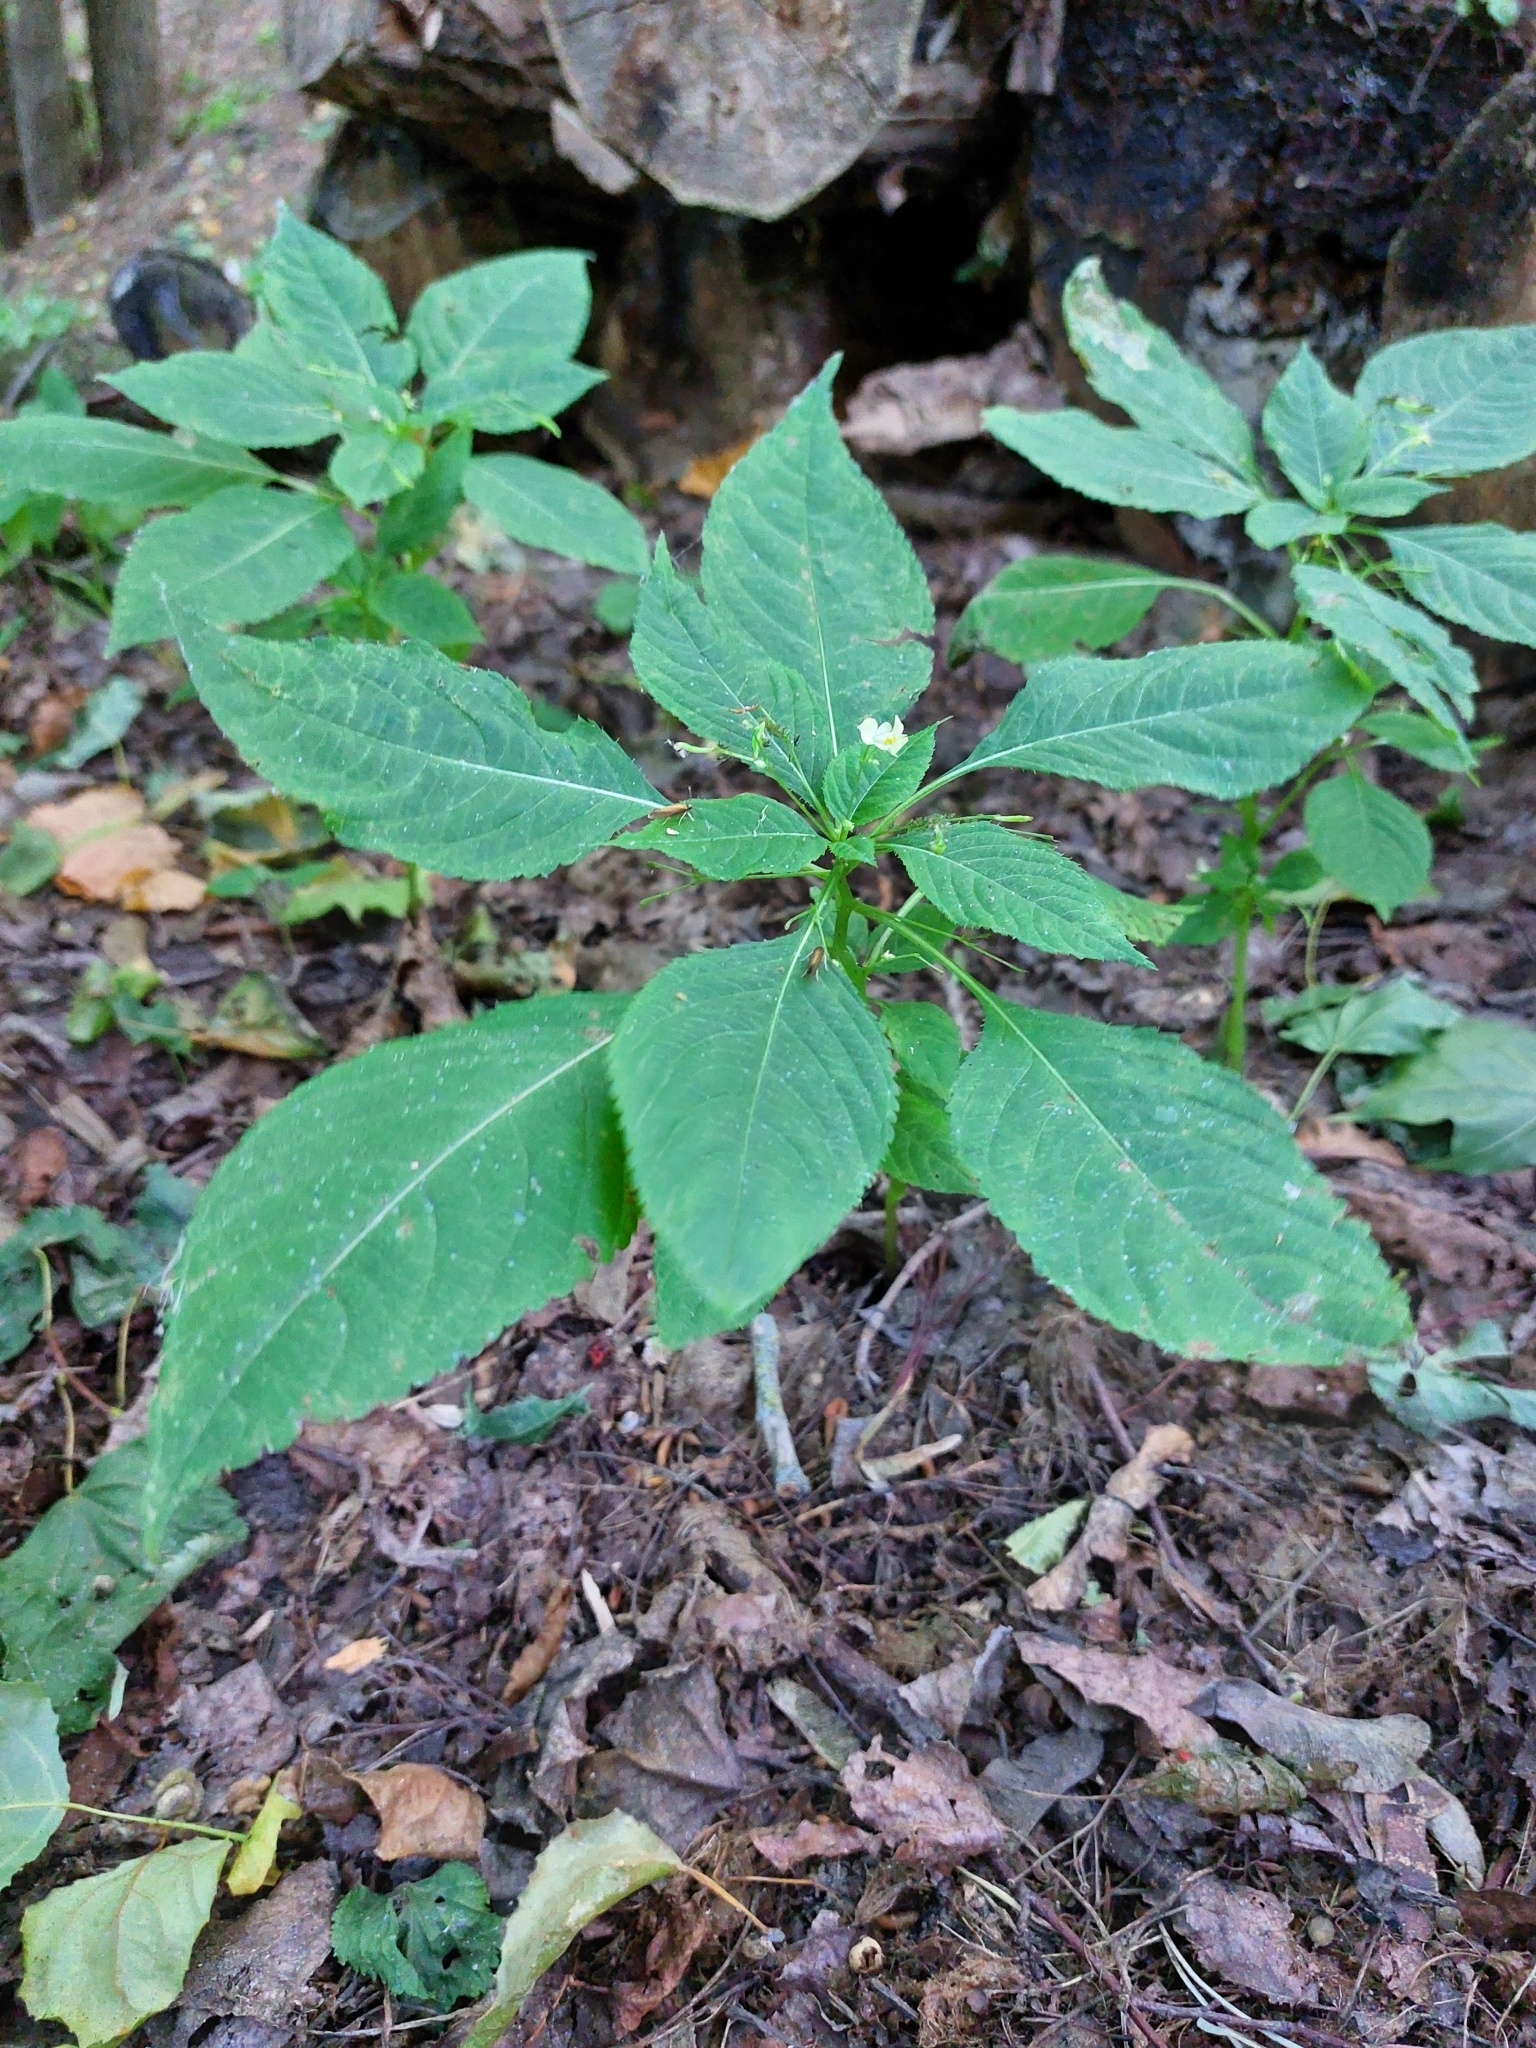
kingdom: Plantae
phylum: Tracheophyta
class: Magnoliopsida
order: Ericales
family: Balsaminaceae
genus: Impatiens
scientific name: Impatiens parviflora
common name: Small balsam
